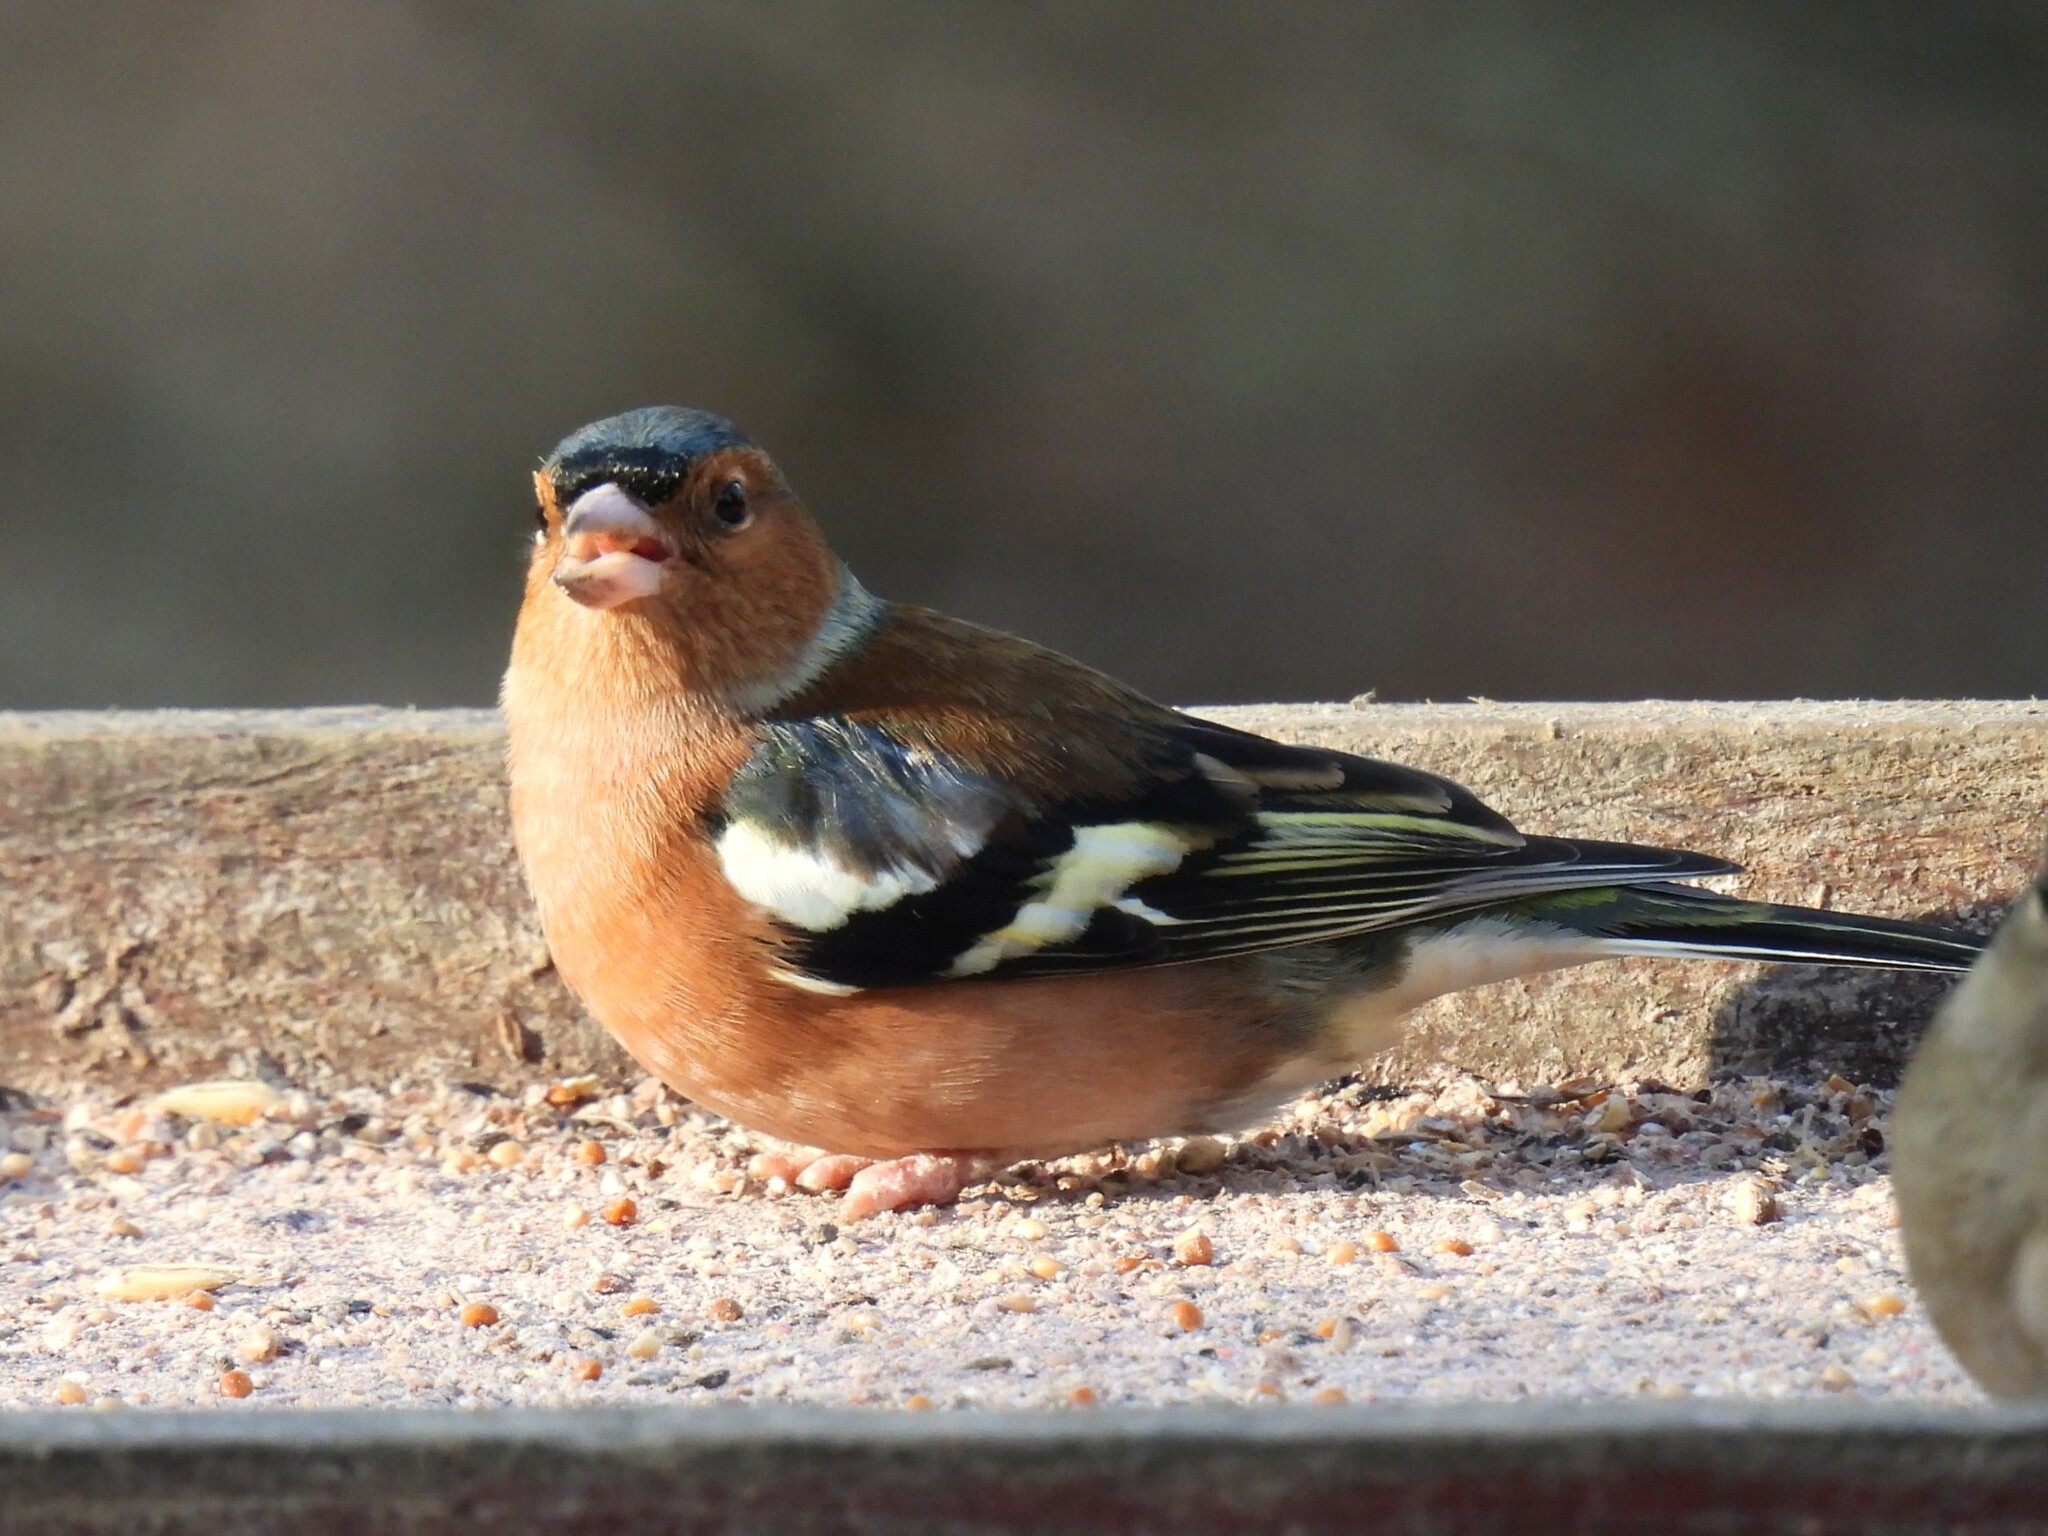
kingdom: Animalia
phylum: Chordata
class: Aves
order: Passeriformes
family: Fringillidae
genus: Fringilla
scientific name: Fringilla coelebs
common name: Common chaffinch
